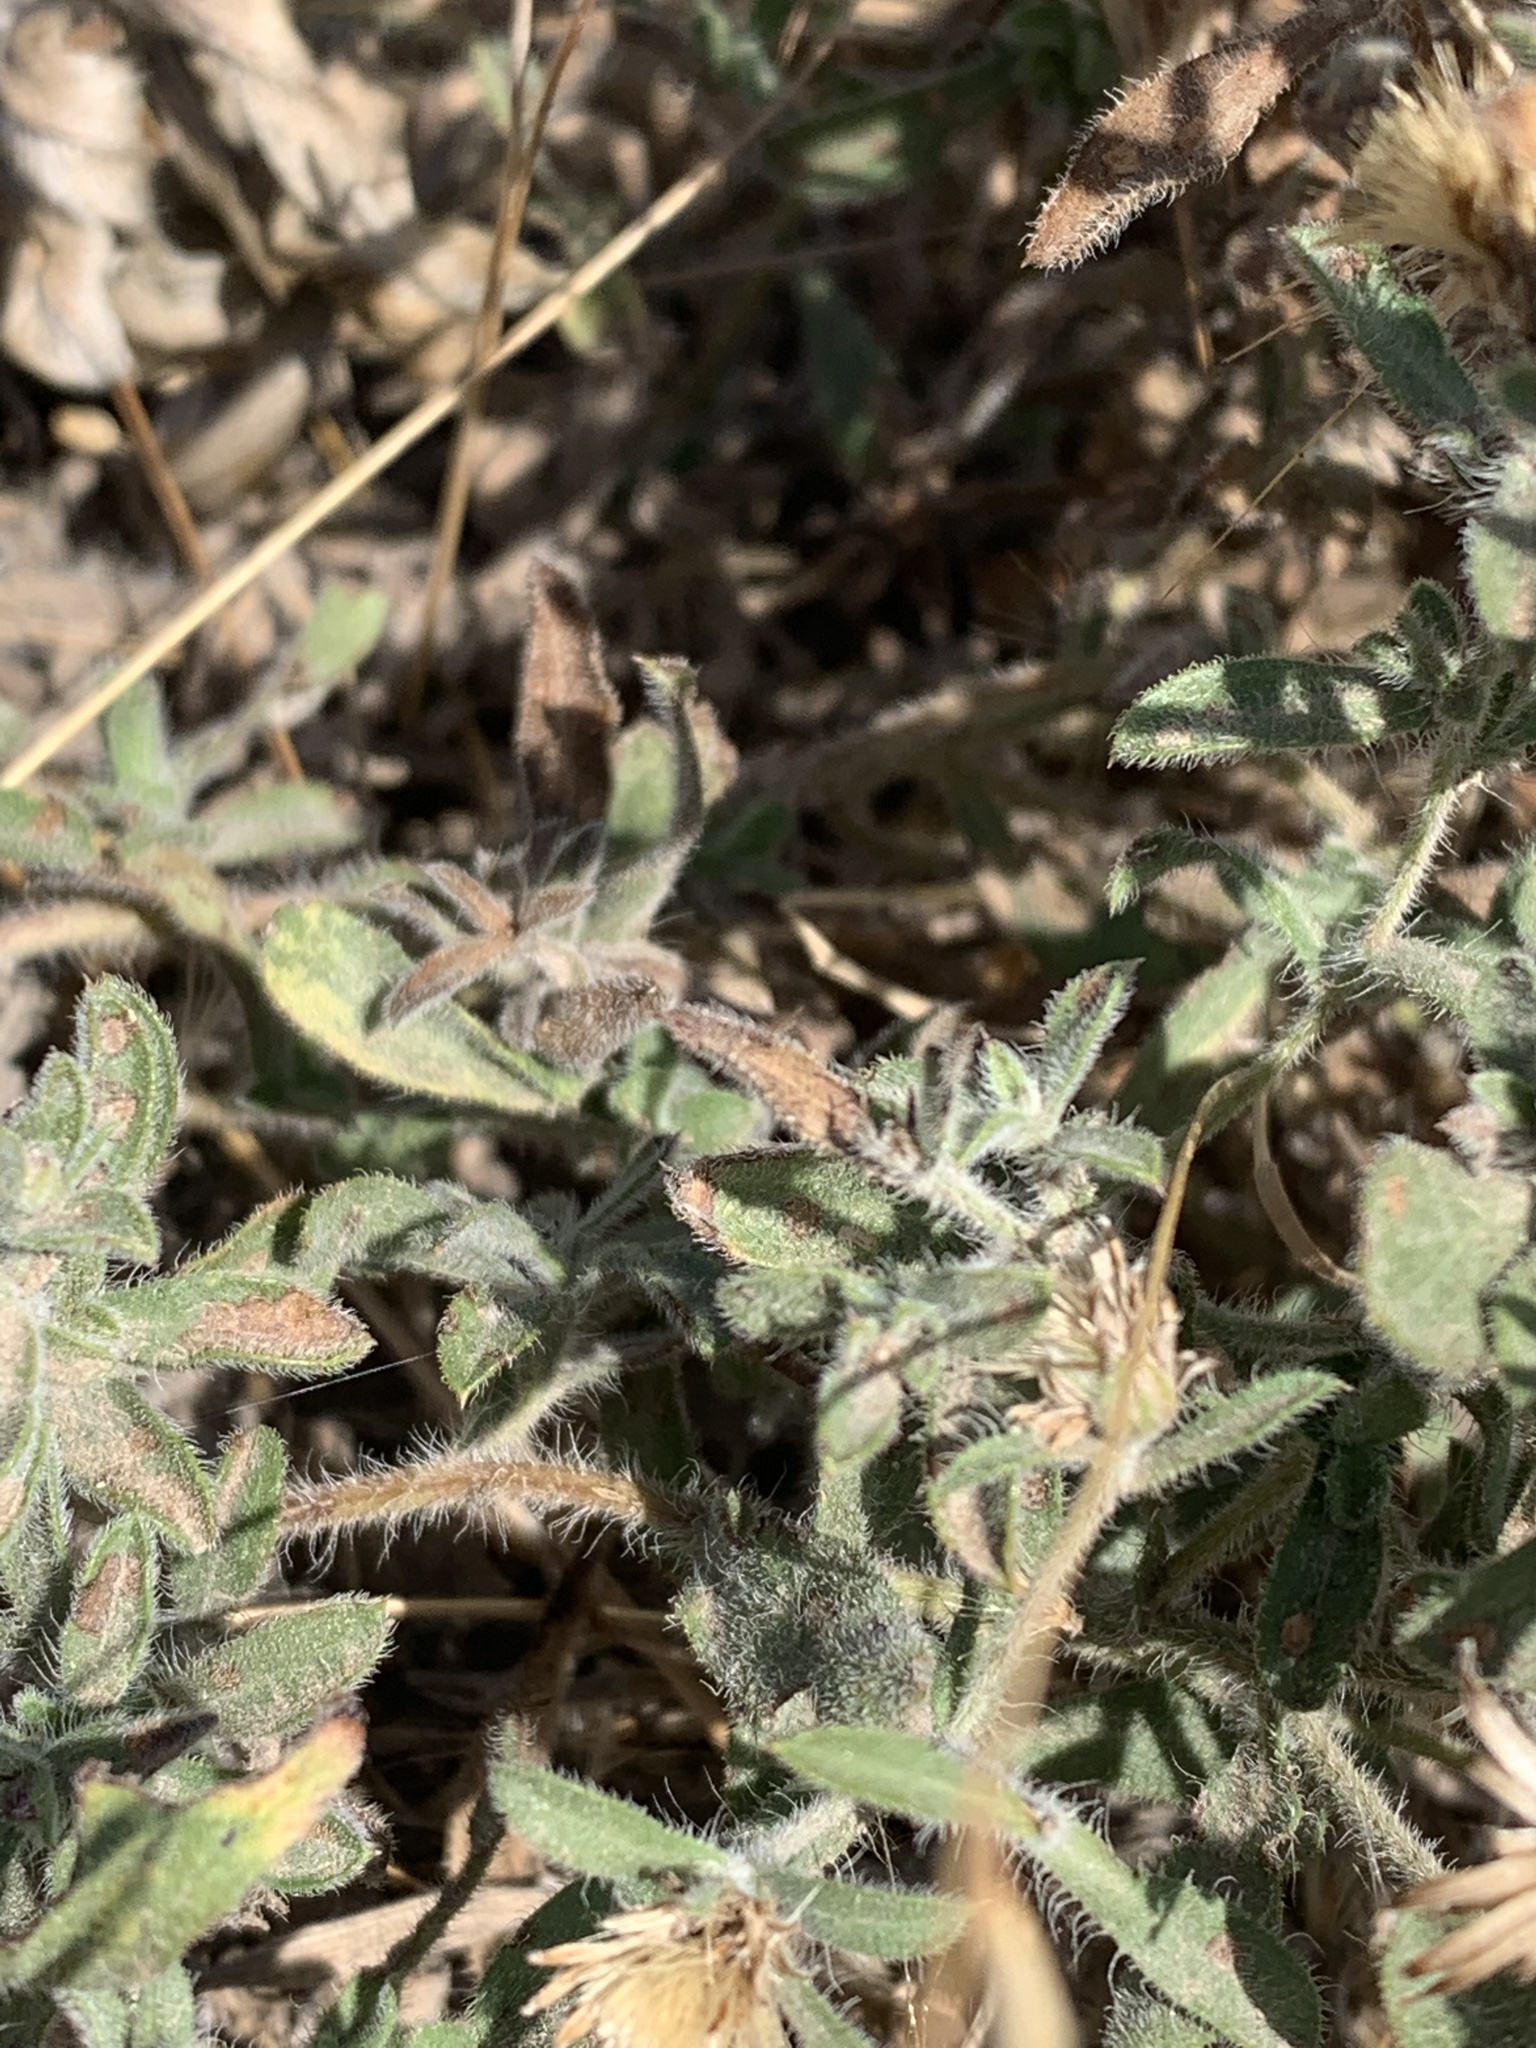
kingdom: Plantae
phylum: Tracheophyta
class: Magnoliopsida
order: Asterales
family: Asteraceae
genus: Heterotheca
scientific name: Heterotheca hirsutissima
